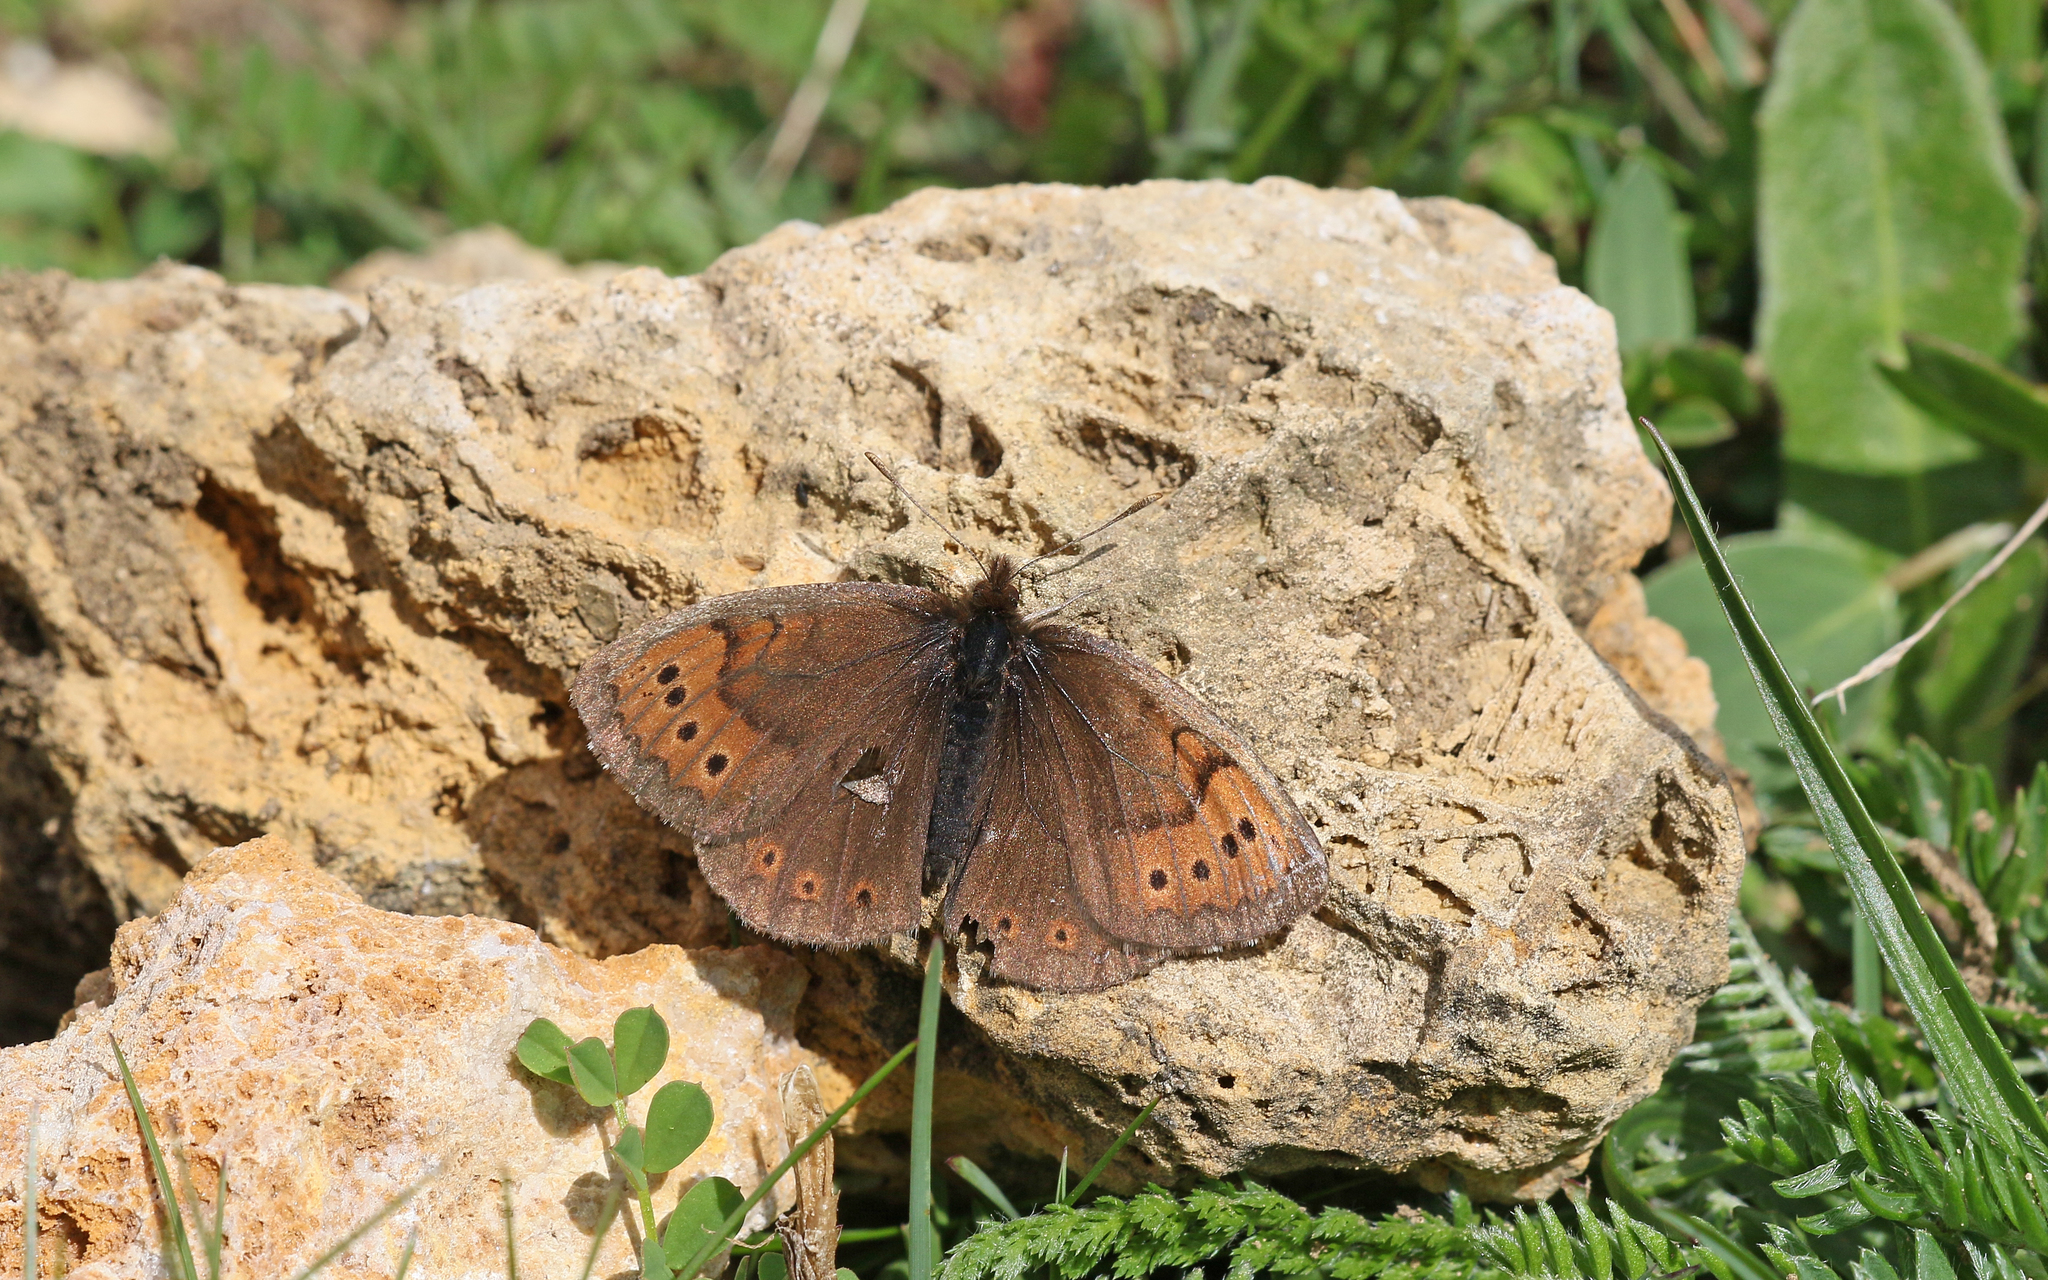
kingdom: Animalia
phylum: Arthropoda
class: Insecta
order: Lepidoptera
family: Nymphalidae
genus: Erebia
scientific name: Erebia pandrose
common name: Dewy ringlet
